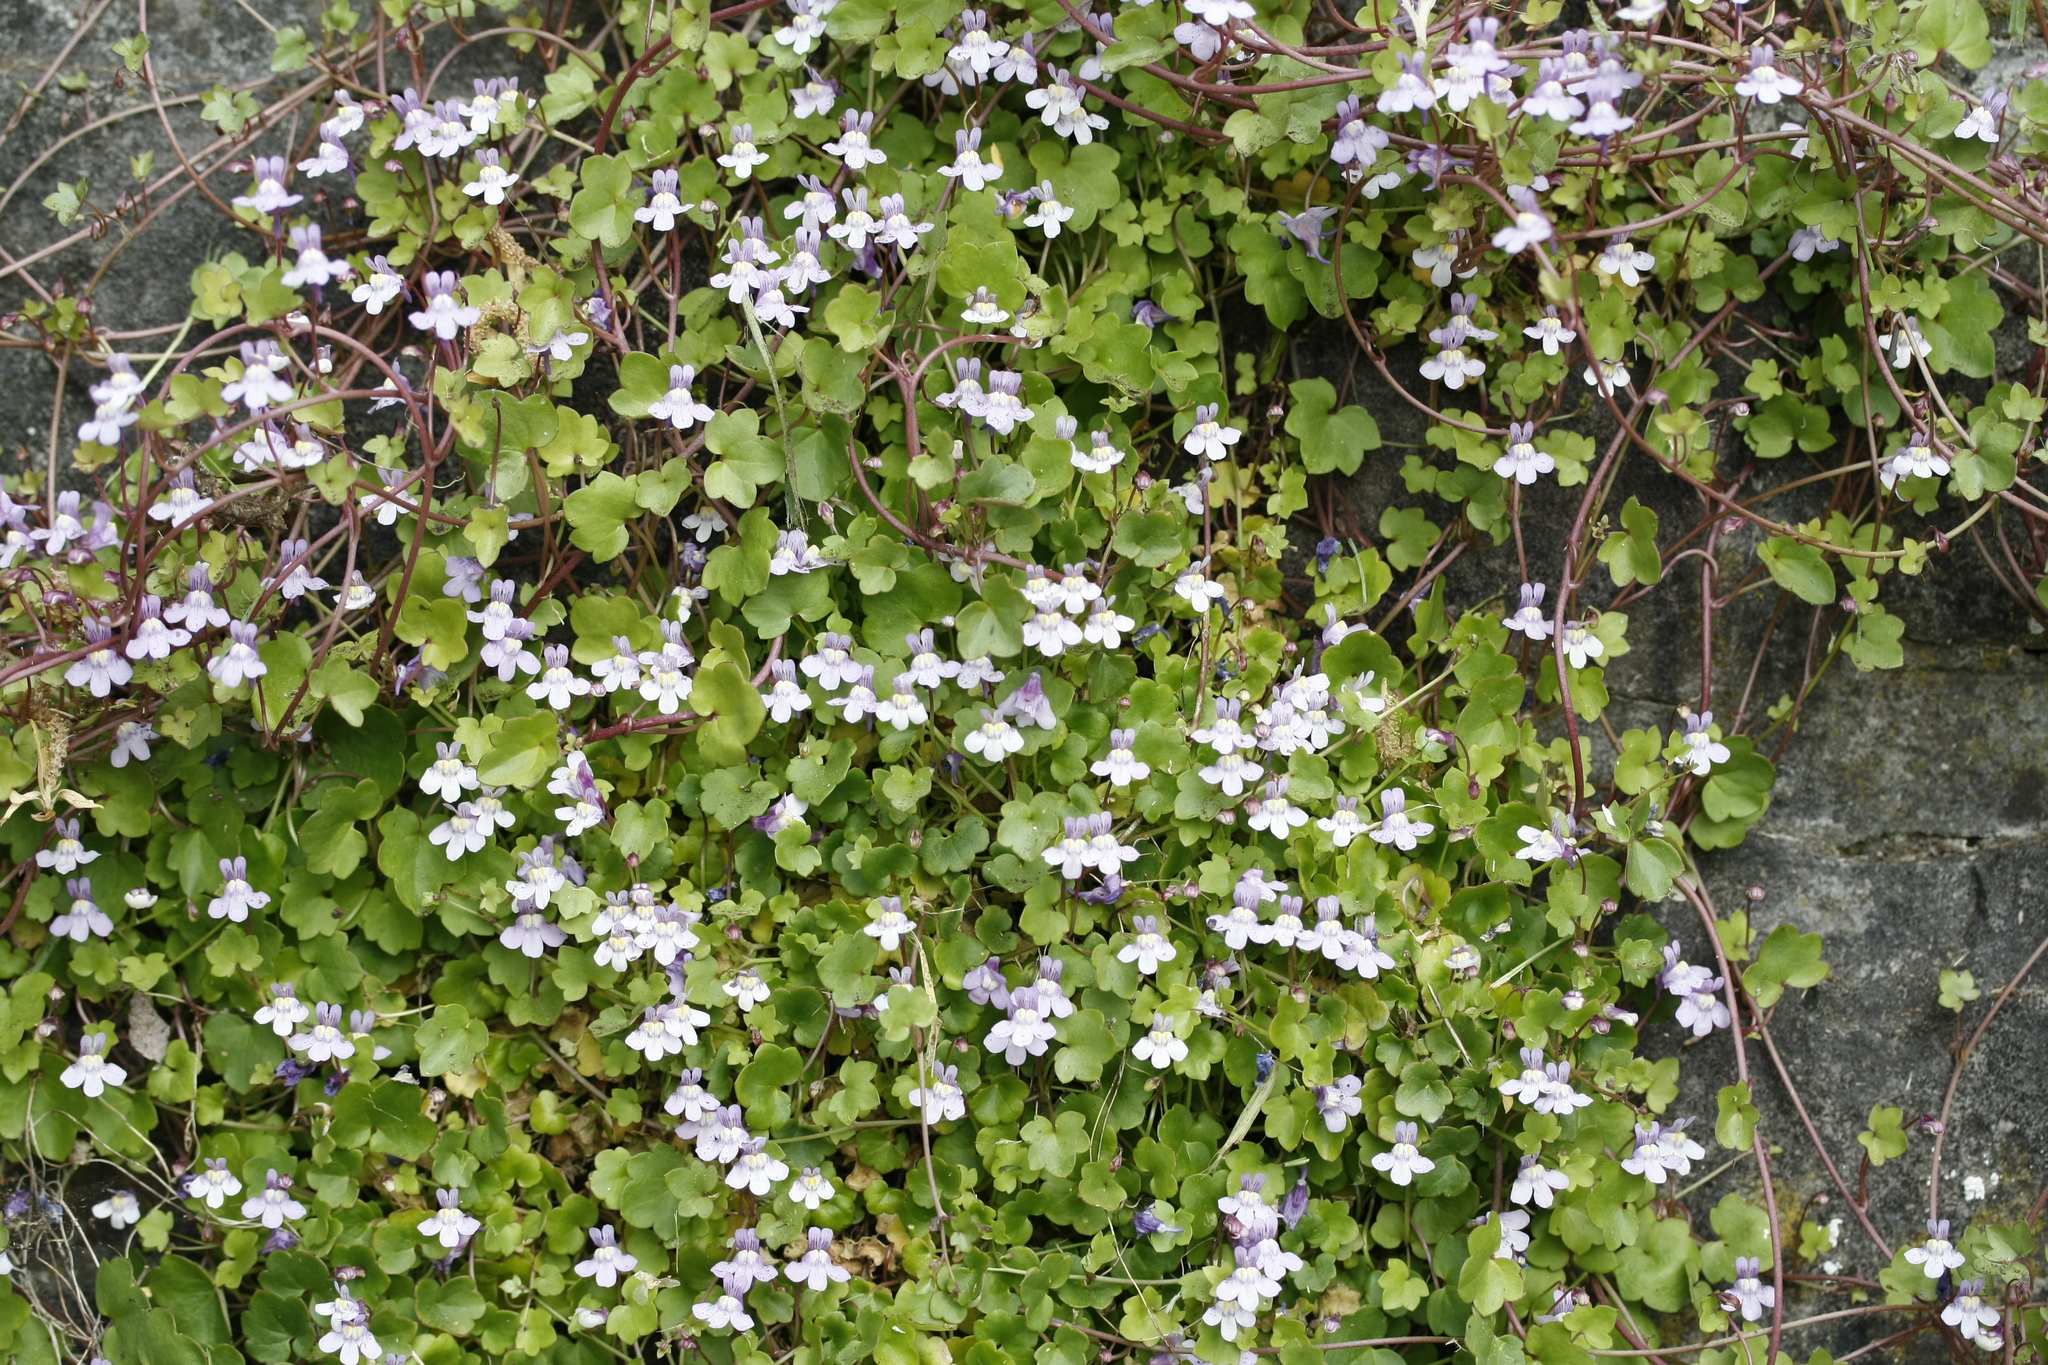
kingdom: Plantae
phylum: Tracheophyta
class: Magnoliopsida
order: Lamiales
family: Plantaginaceae
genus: Cymbalaria
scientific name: Cymbalaria muralis
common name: Ivy-leaved toadflax
